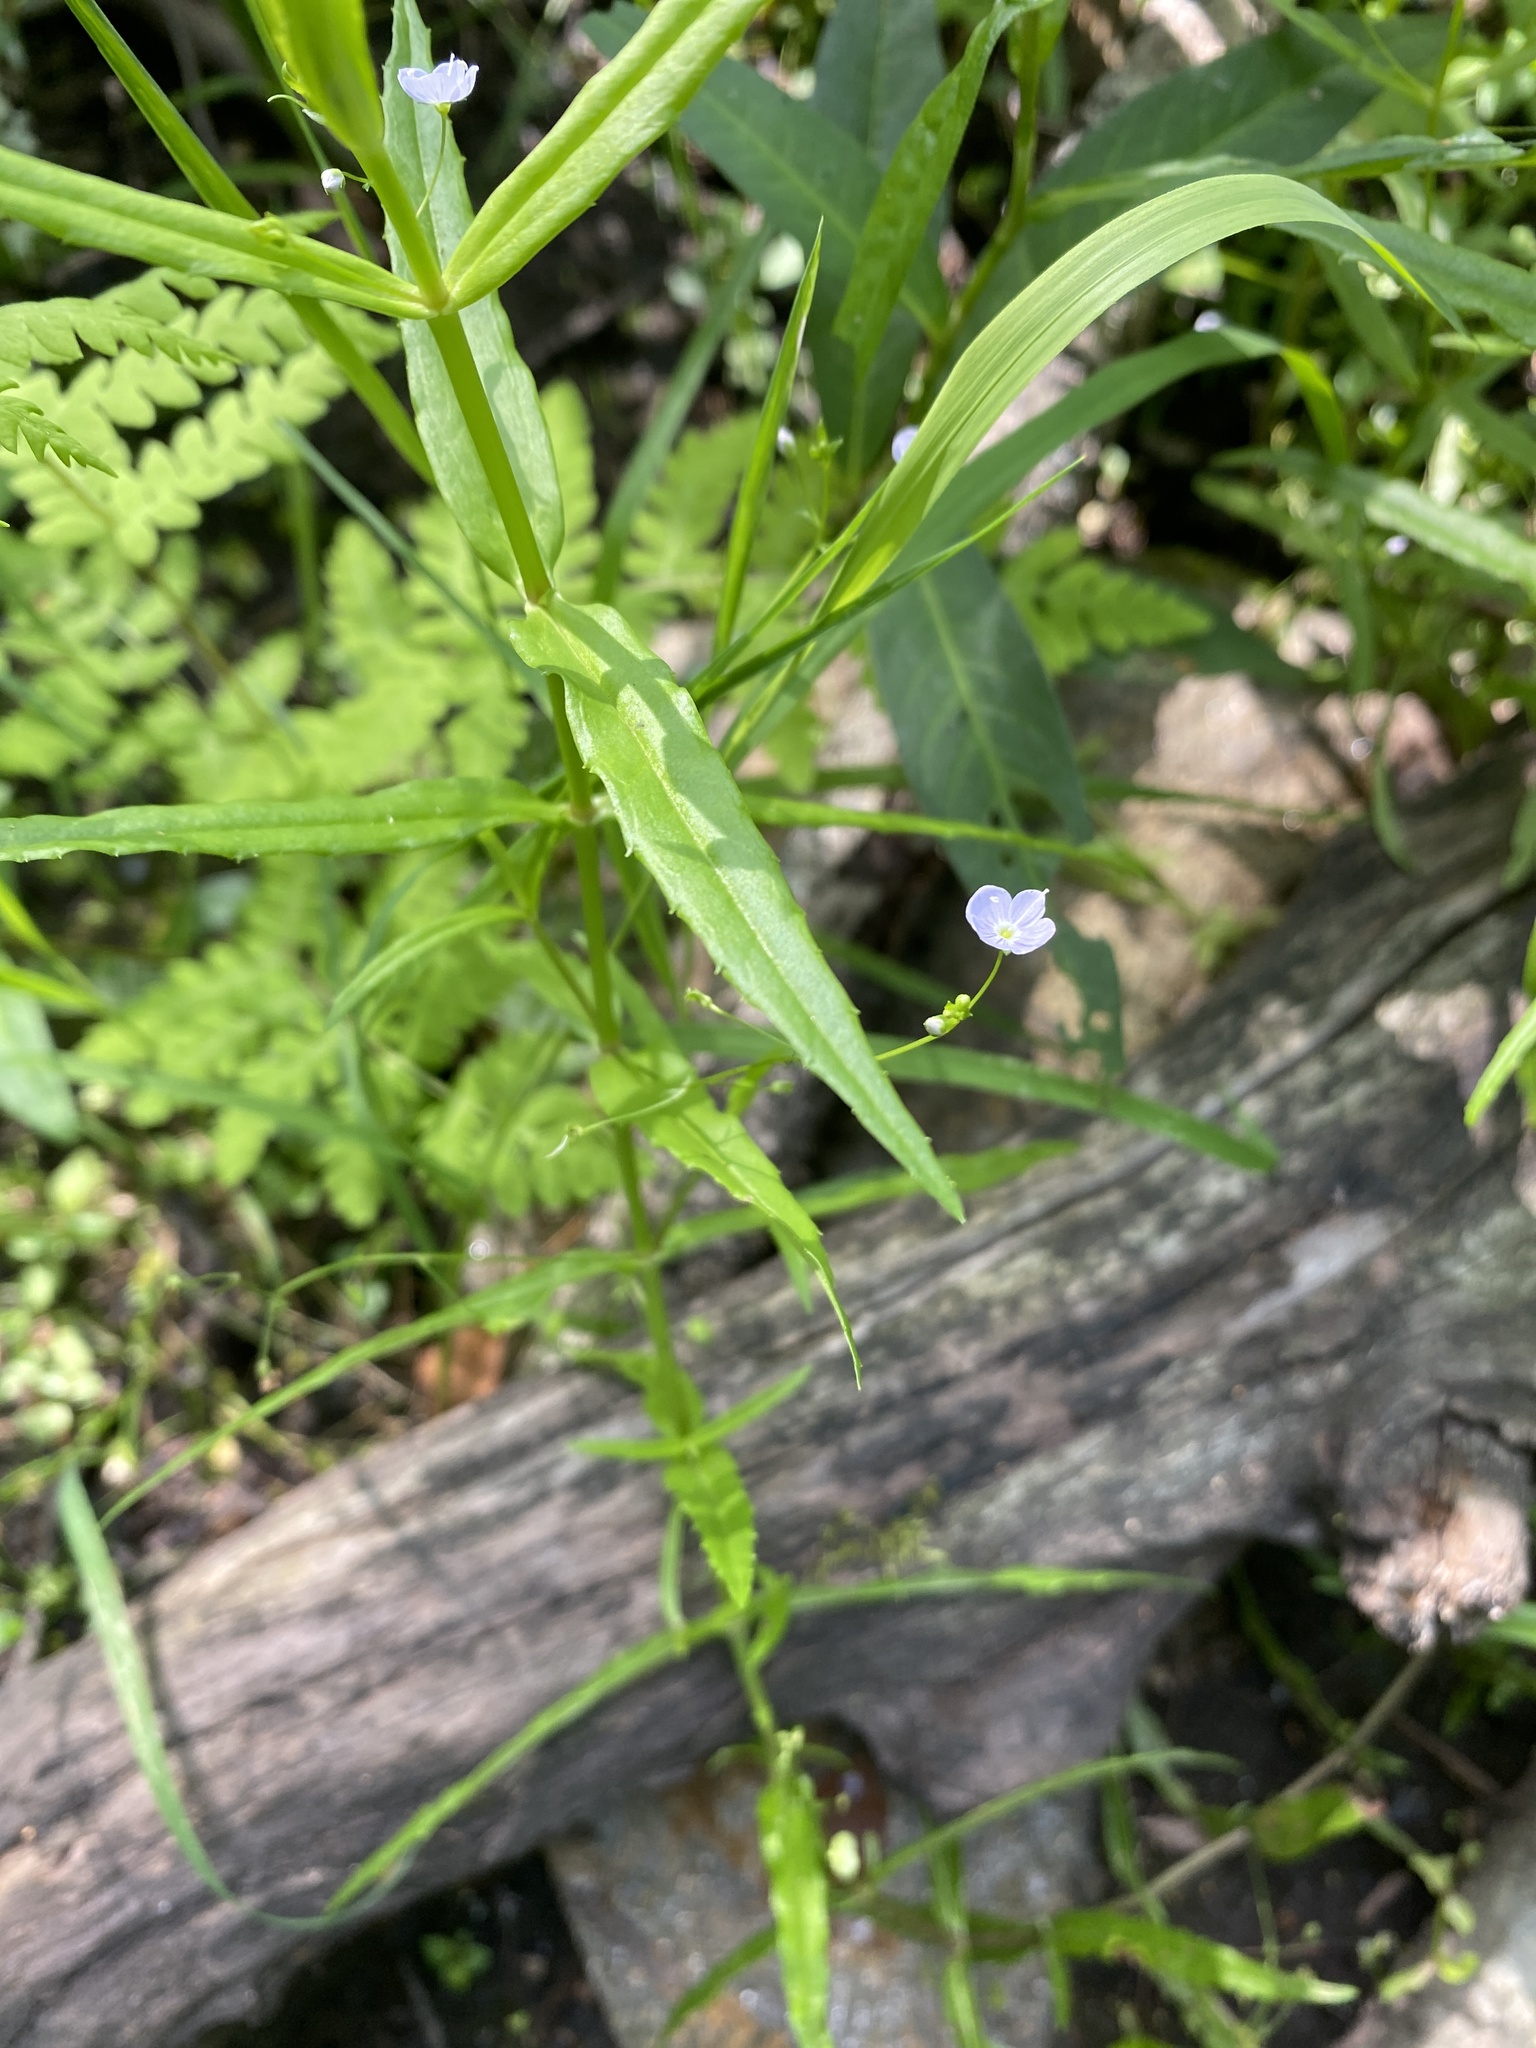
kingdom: Plantae
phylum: Tracheophyta
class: Magnoliopsida
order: Lamiales
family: Plantaginaceae
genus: Veronica
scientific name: Veronica scutellata
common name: Marsh speedwell
